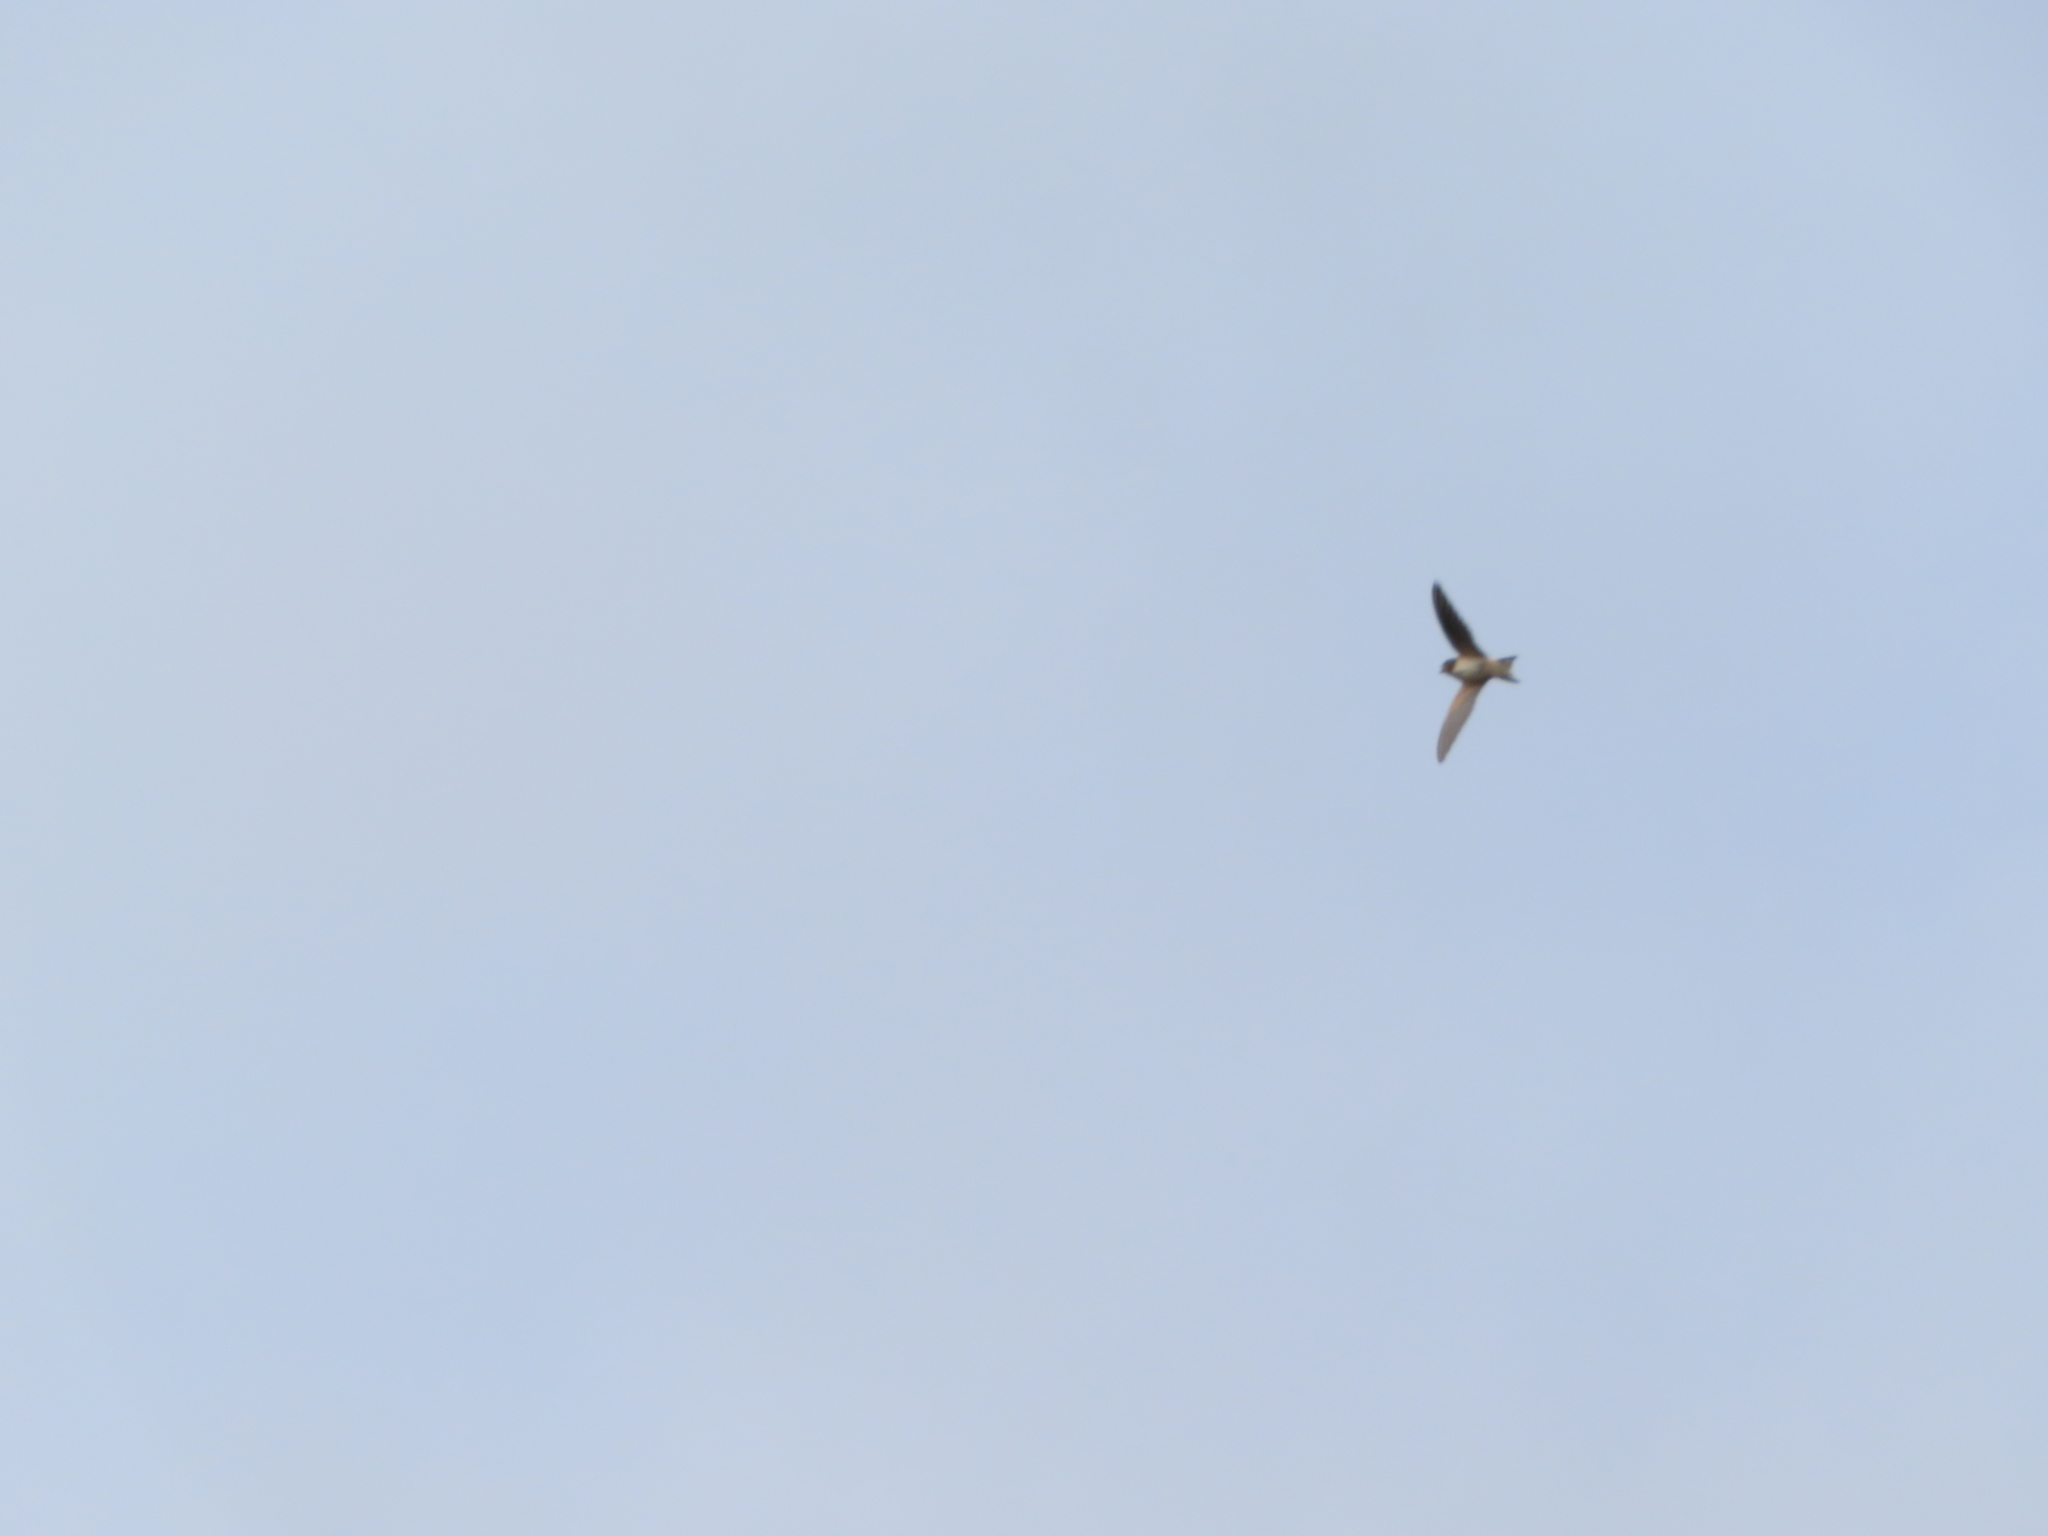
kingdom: Animalia
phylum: Chordata
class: Aves
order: Passeriformes
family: Hirundinidae
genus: Hirundo
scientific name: Hirundo rustica
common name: Barn swallow
